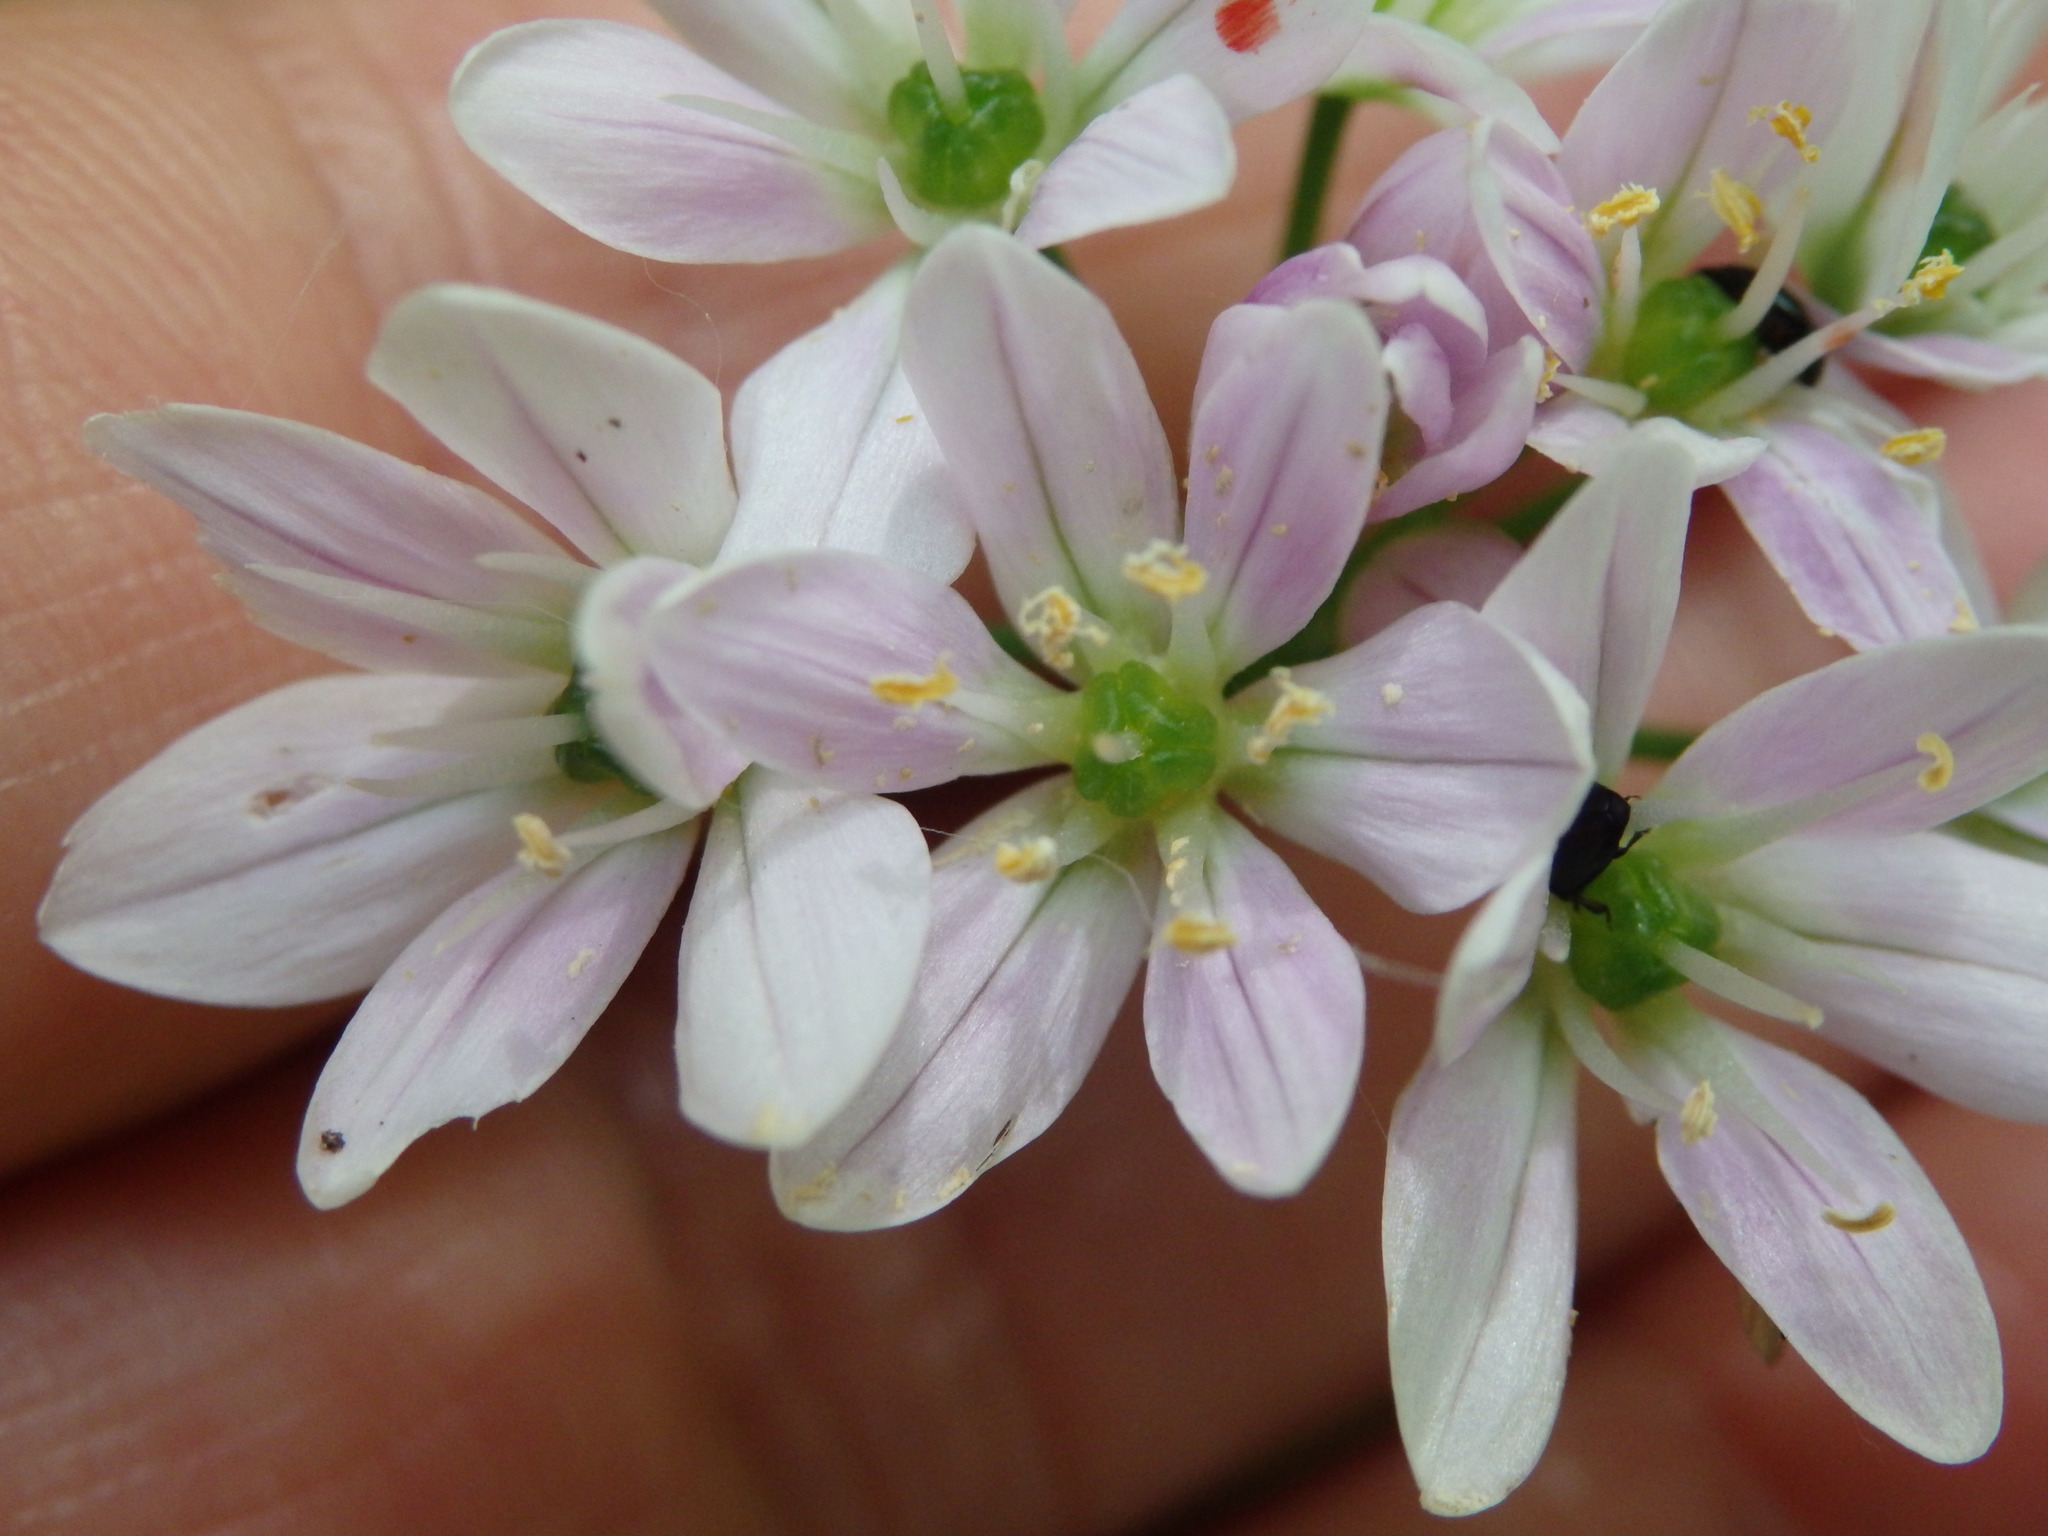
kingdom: Plantae
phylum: Tracheophyta
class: Liliopsida
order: Asparagales
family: Amaryllidaceae
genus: Allium
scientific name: Allium massaessylum
